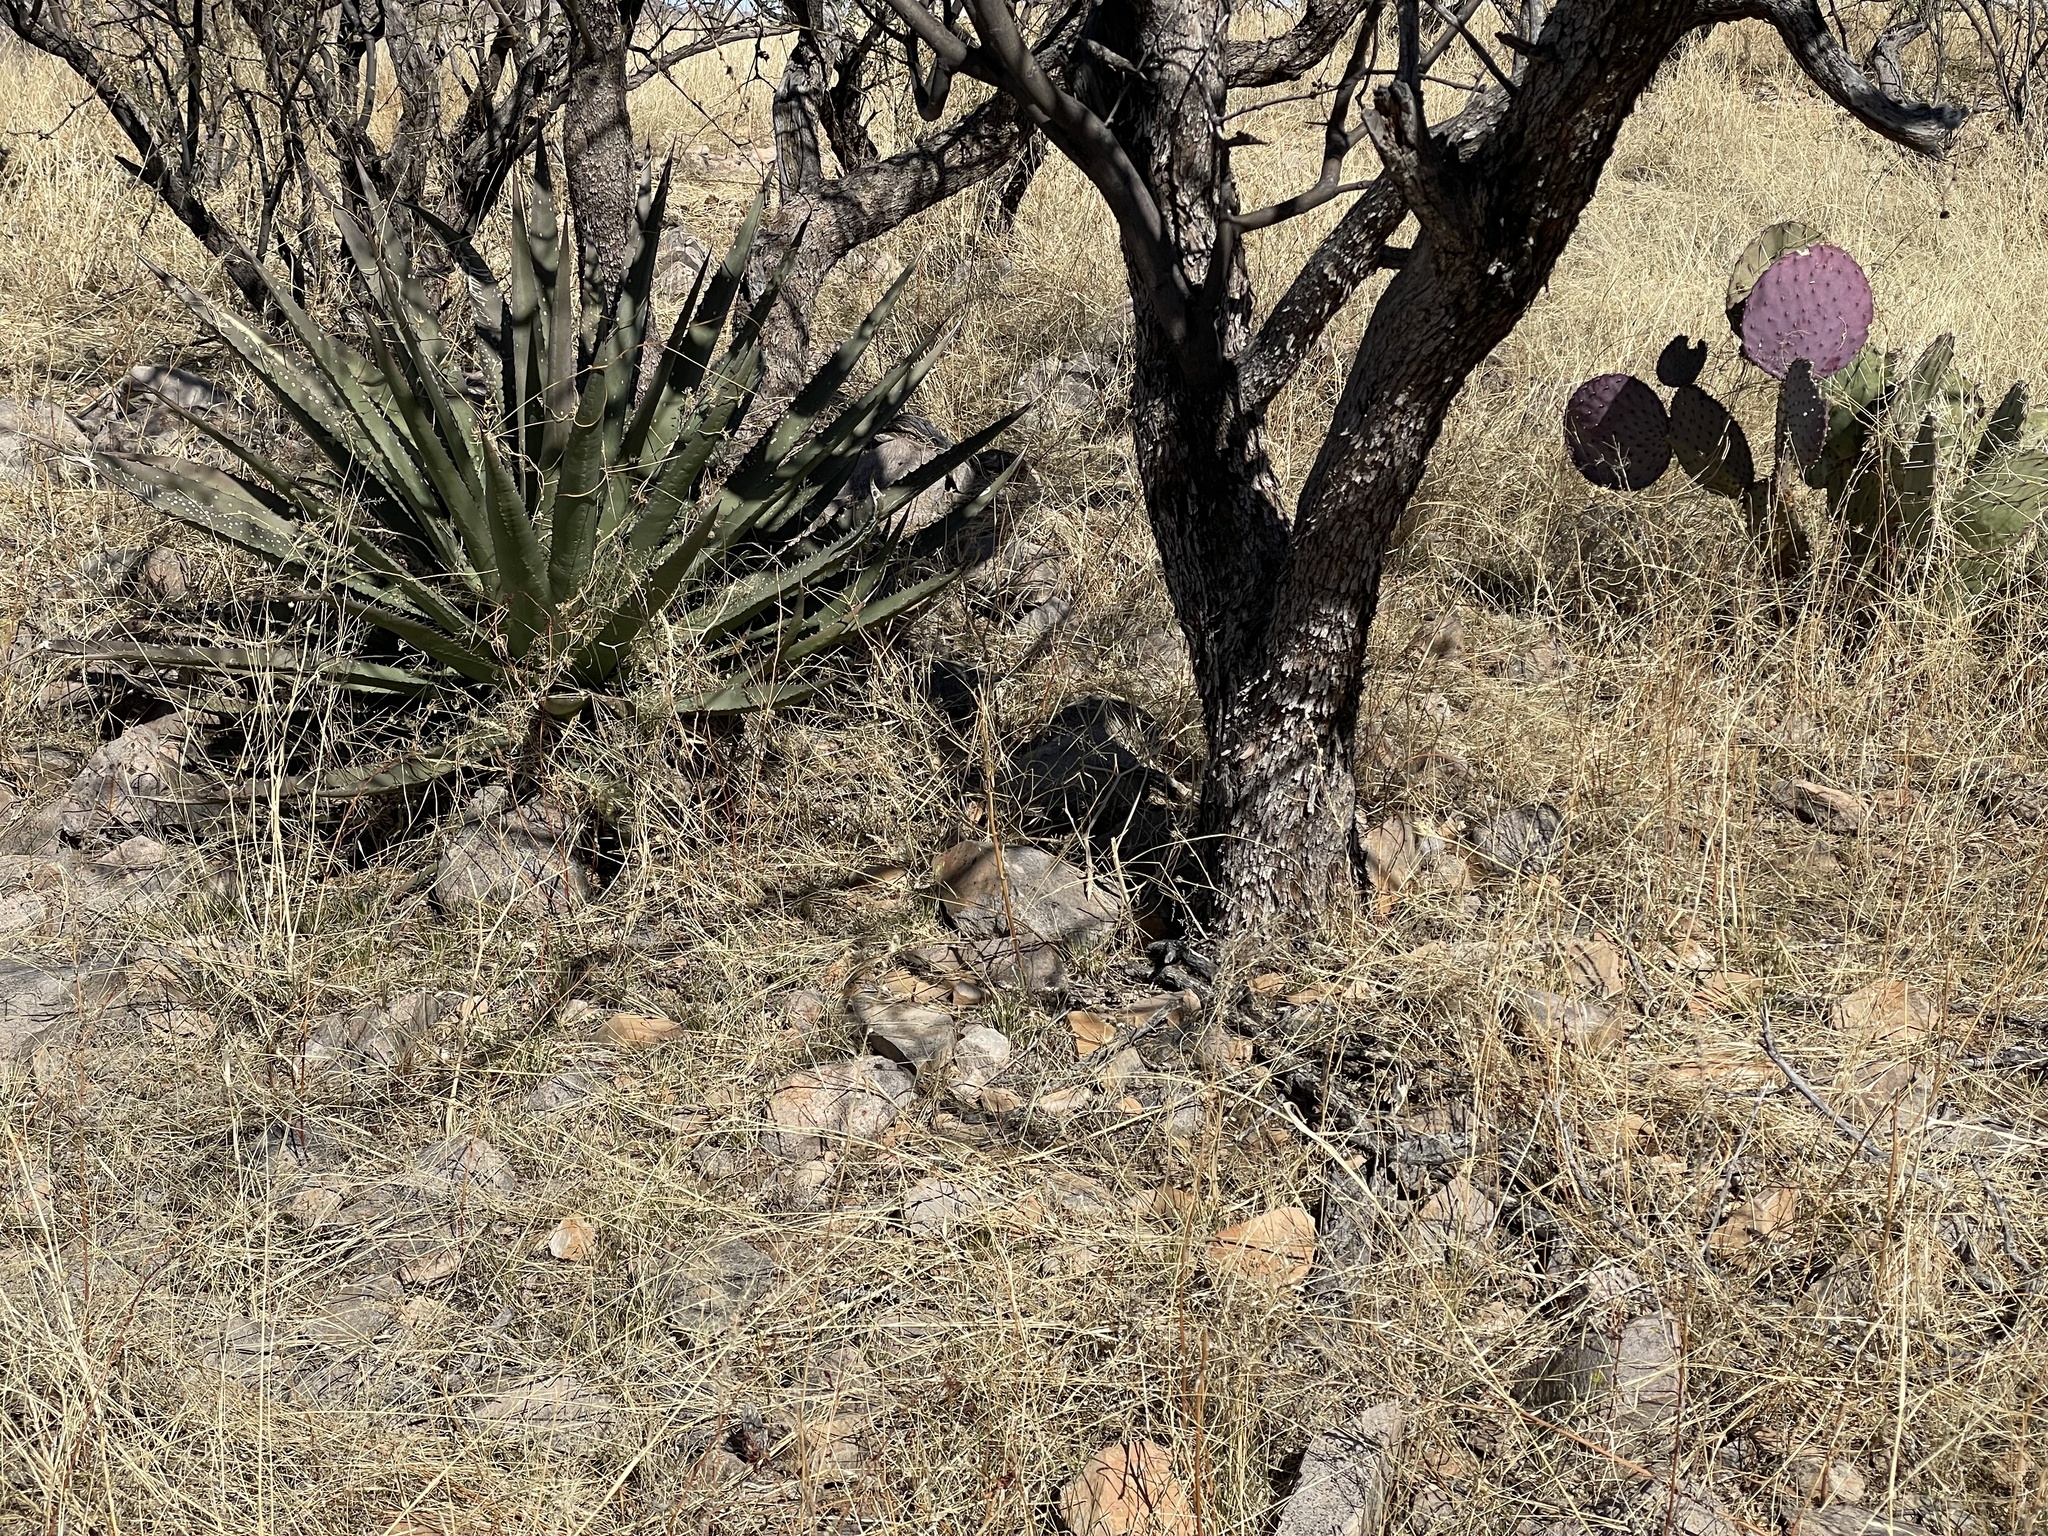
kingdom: Plantae
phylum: Tracheophyta
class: Liliopsida
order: Asparagales
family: Asparagaceae
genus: Agave
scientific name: Agave palmeri
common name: Palmer agave
